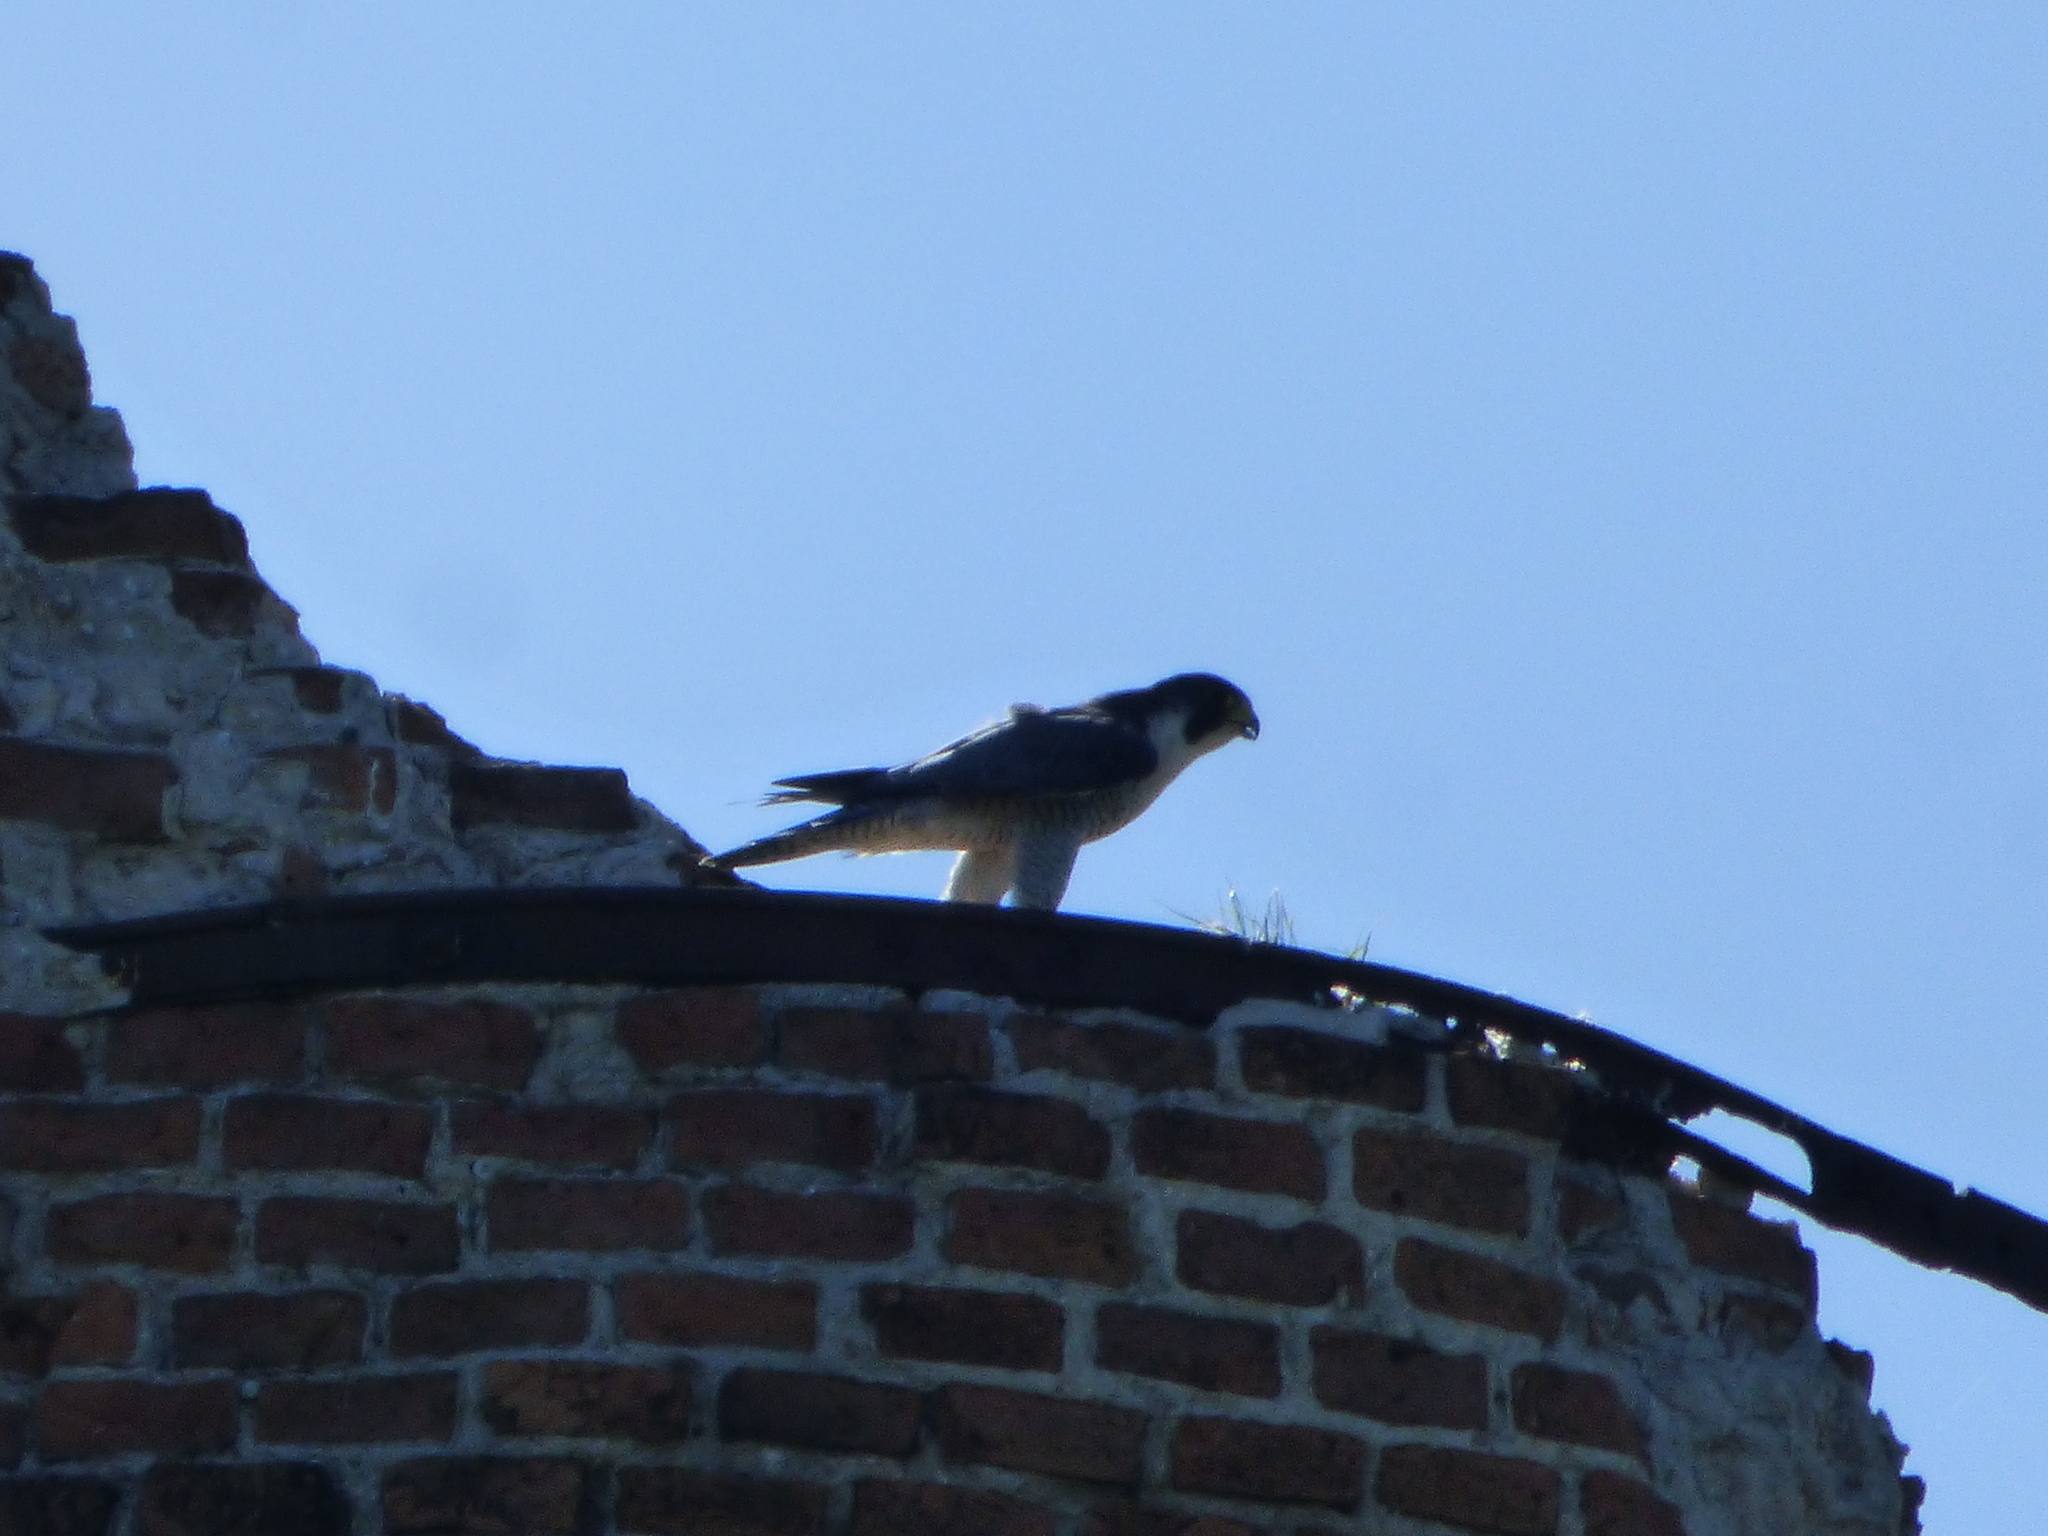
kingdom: Animalia
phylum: Chordata
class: Aves
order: Falconiformes
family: Falconidae
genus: Falco
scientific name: Falco peregrinus
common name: Peregrine falcon
